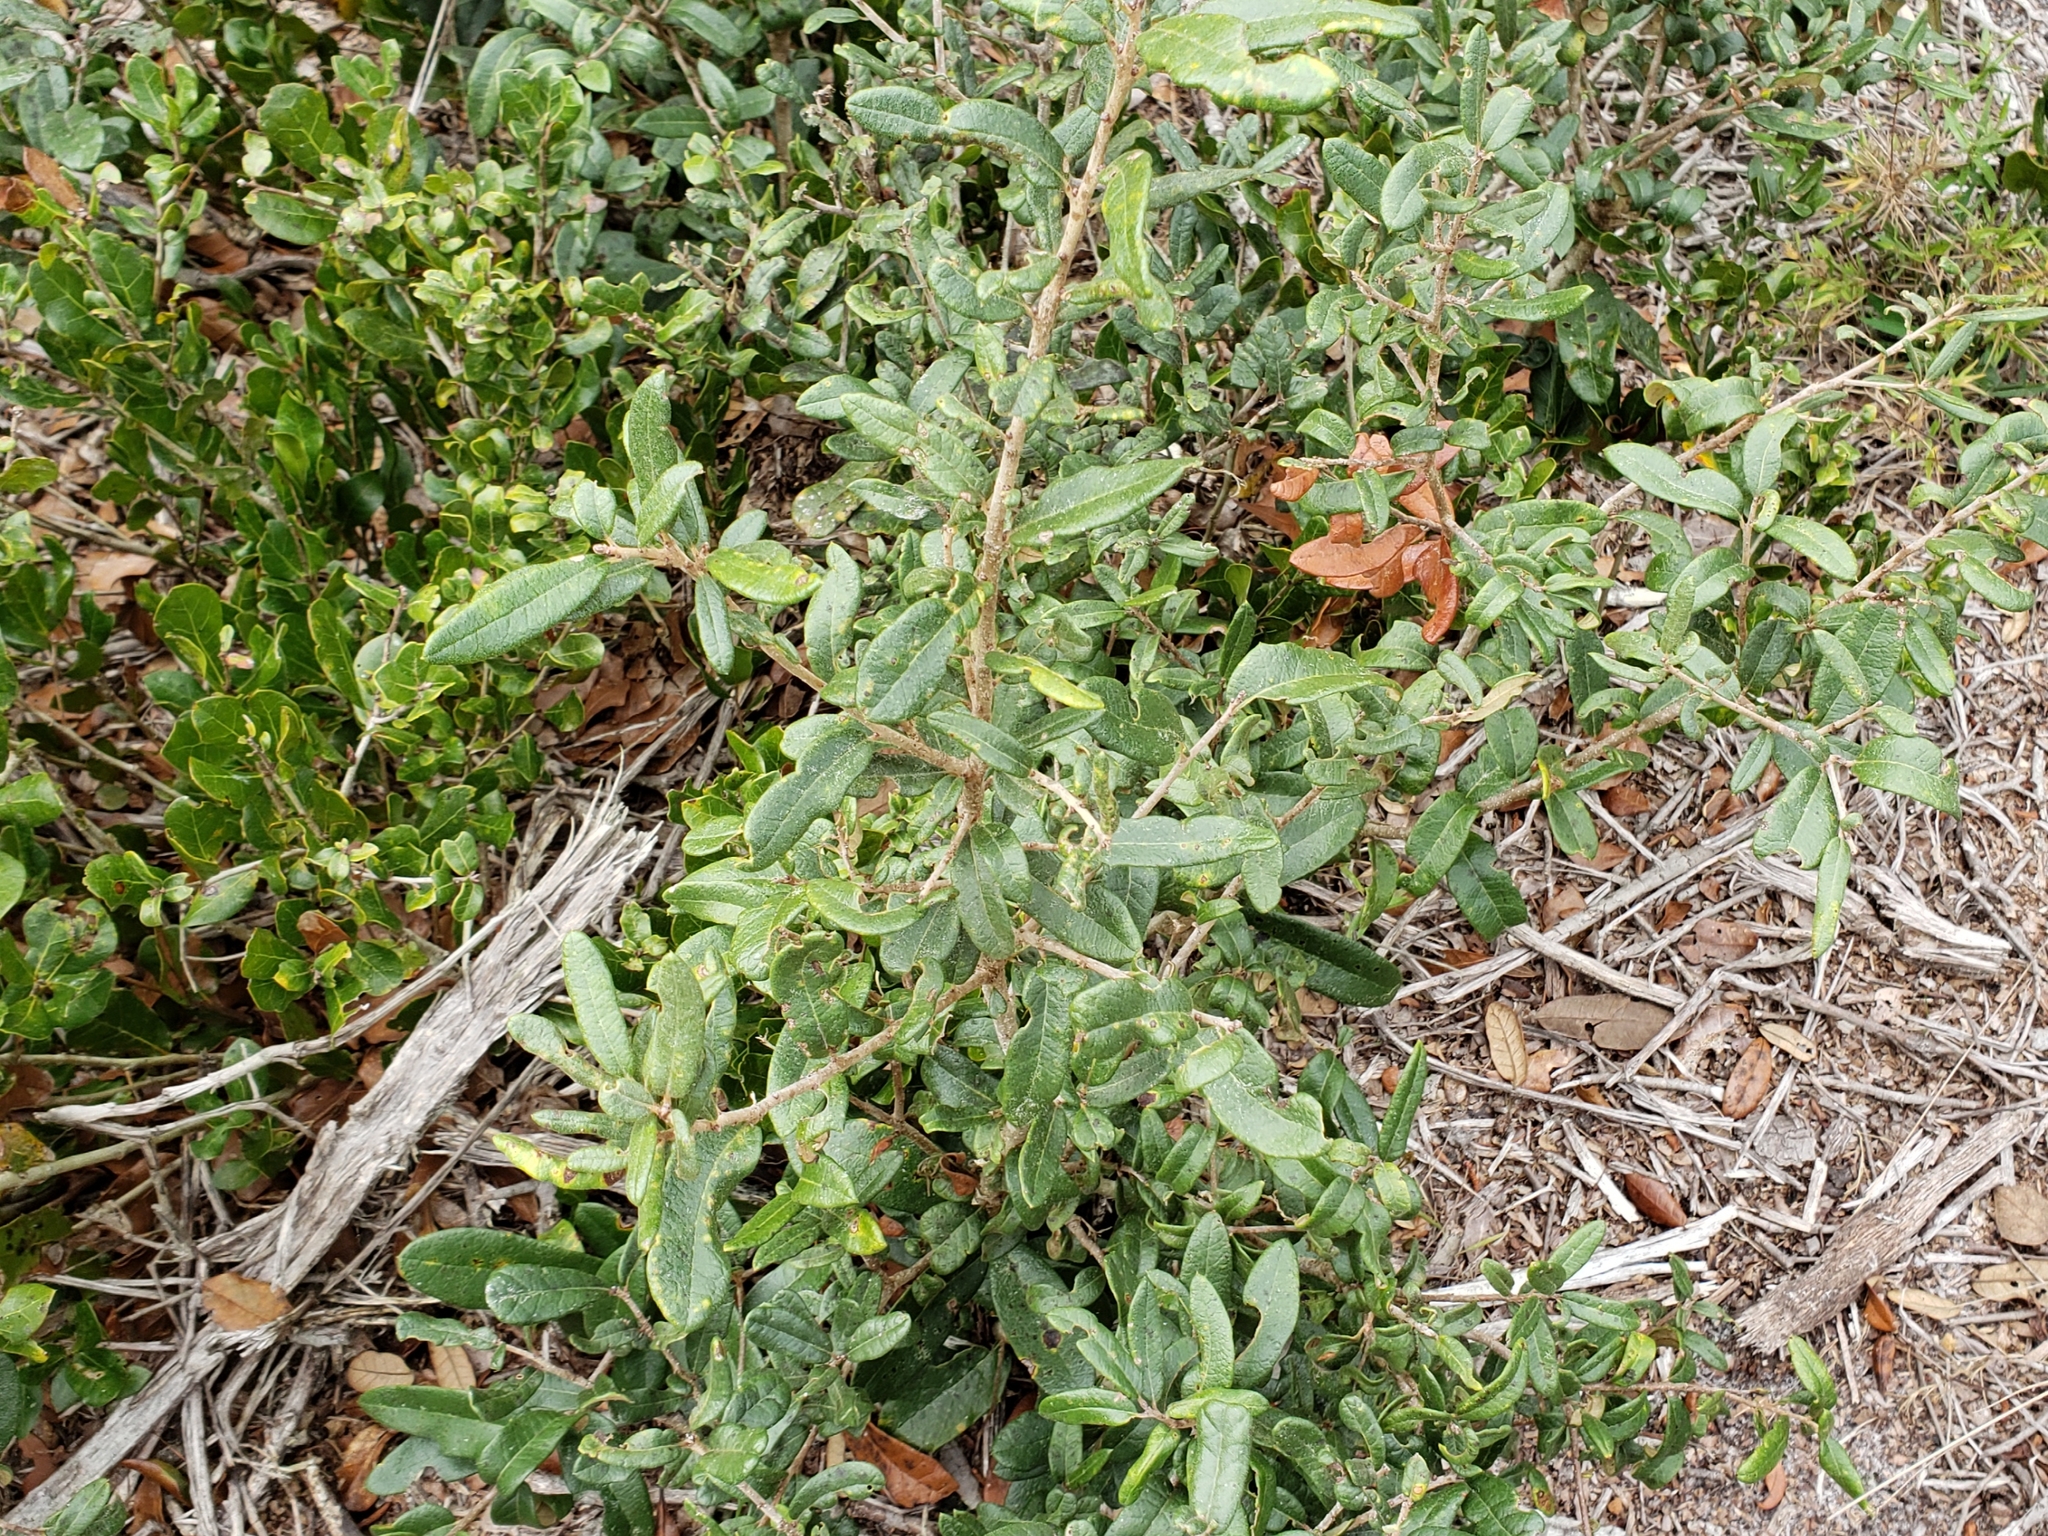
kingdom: Plantae
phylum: Tracheophyta
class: Magnoliopsida
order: Fagales
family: Fagaceae
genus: Quercus
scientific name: Quercus geminata
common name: Sand live oak
